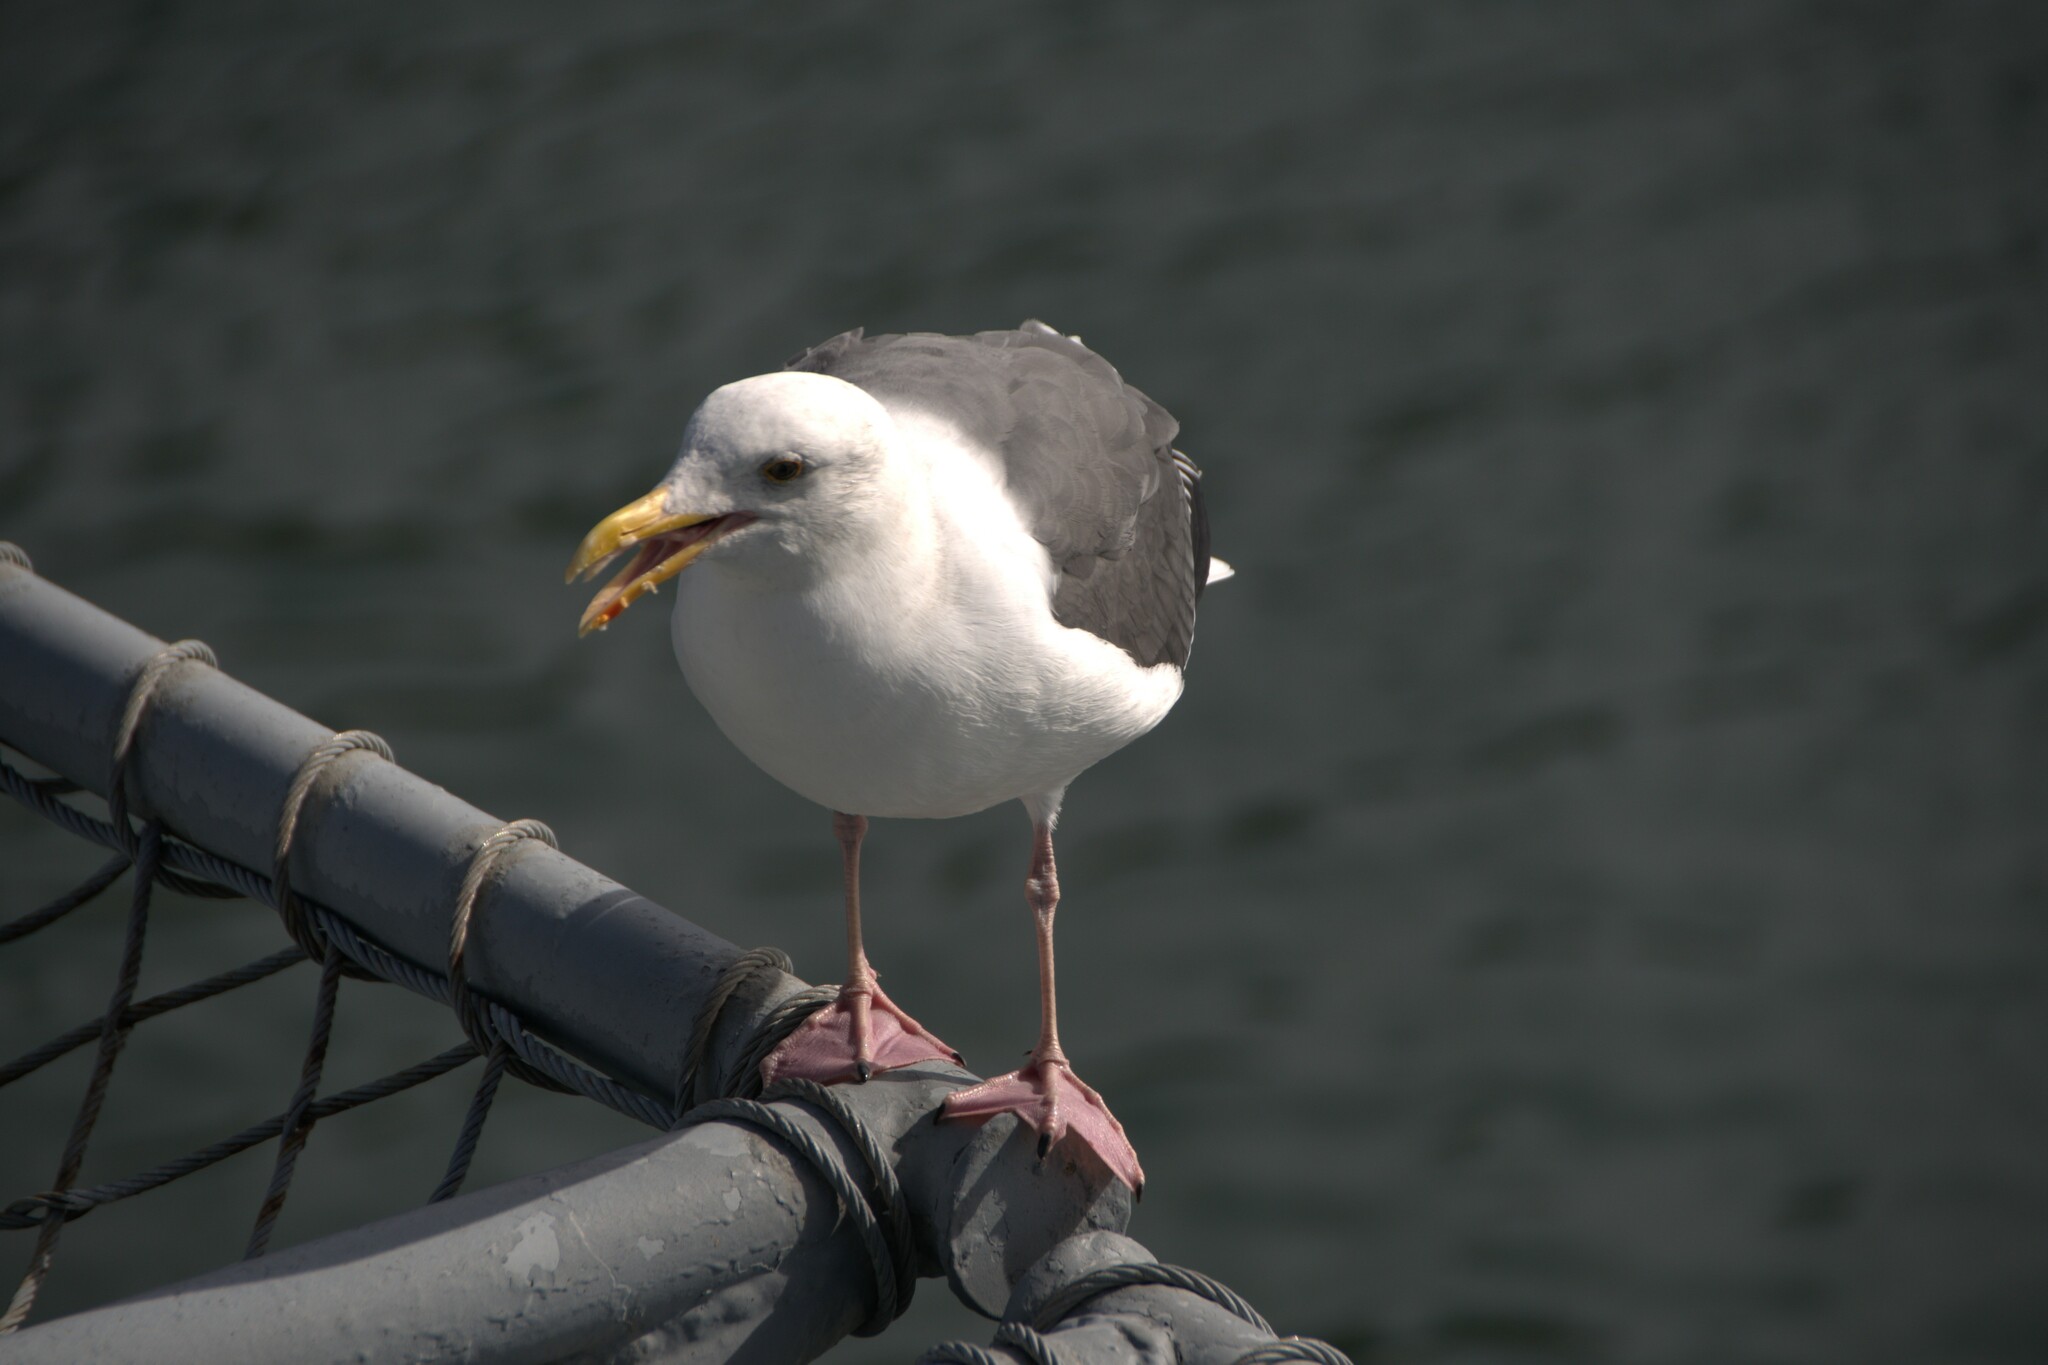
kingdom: Animalia
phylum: Chordata
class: Aves
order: Charadriiformes
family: Laridae
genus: Larus
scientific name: Larus occidentalis
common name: Western gull
